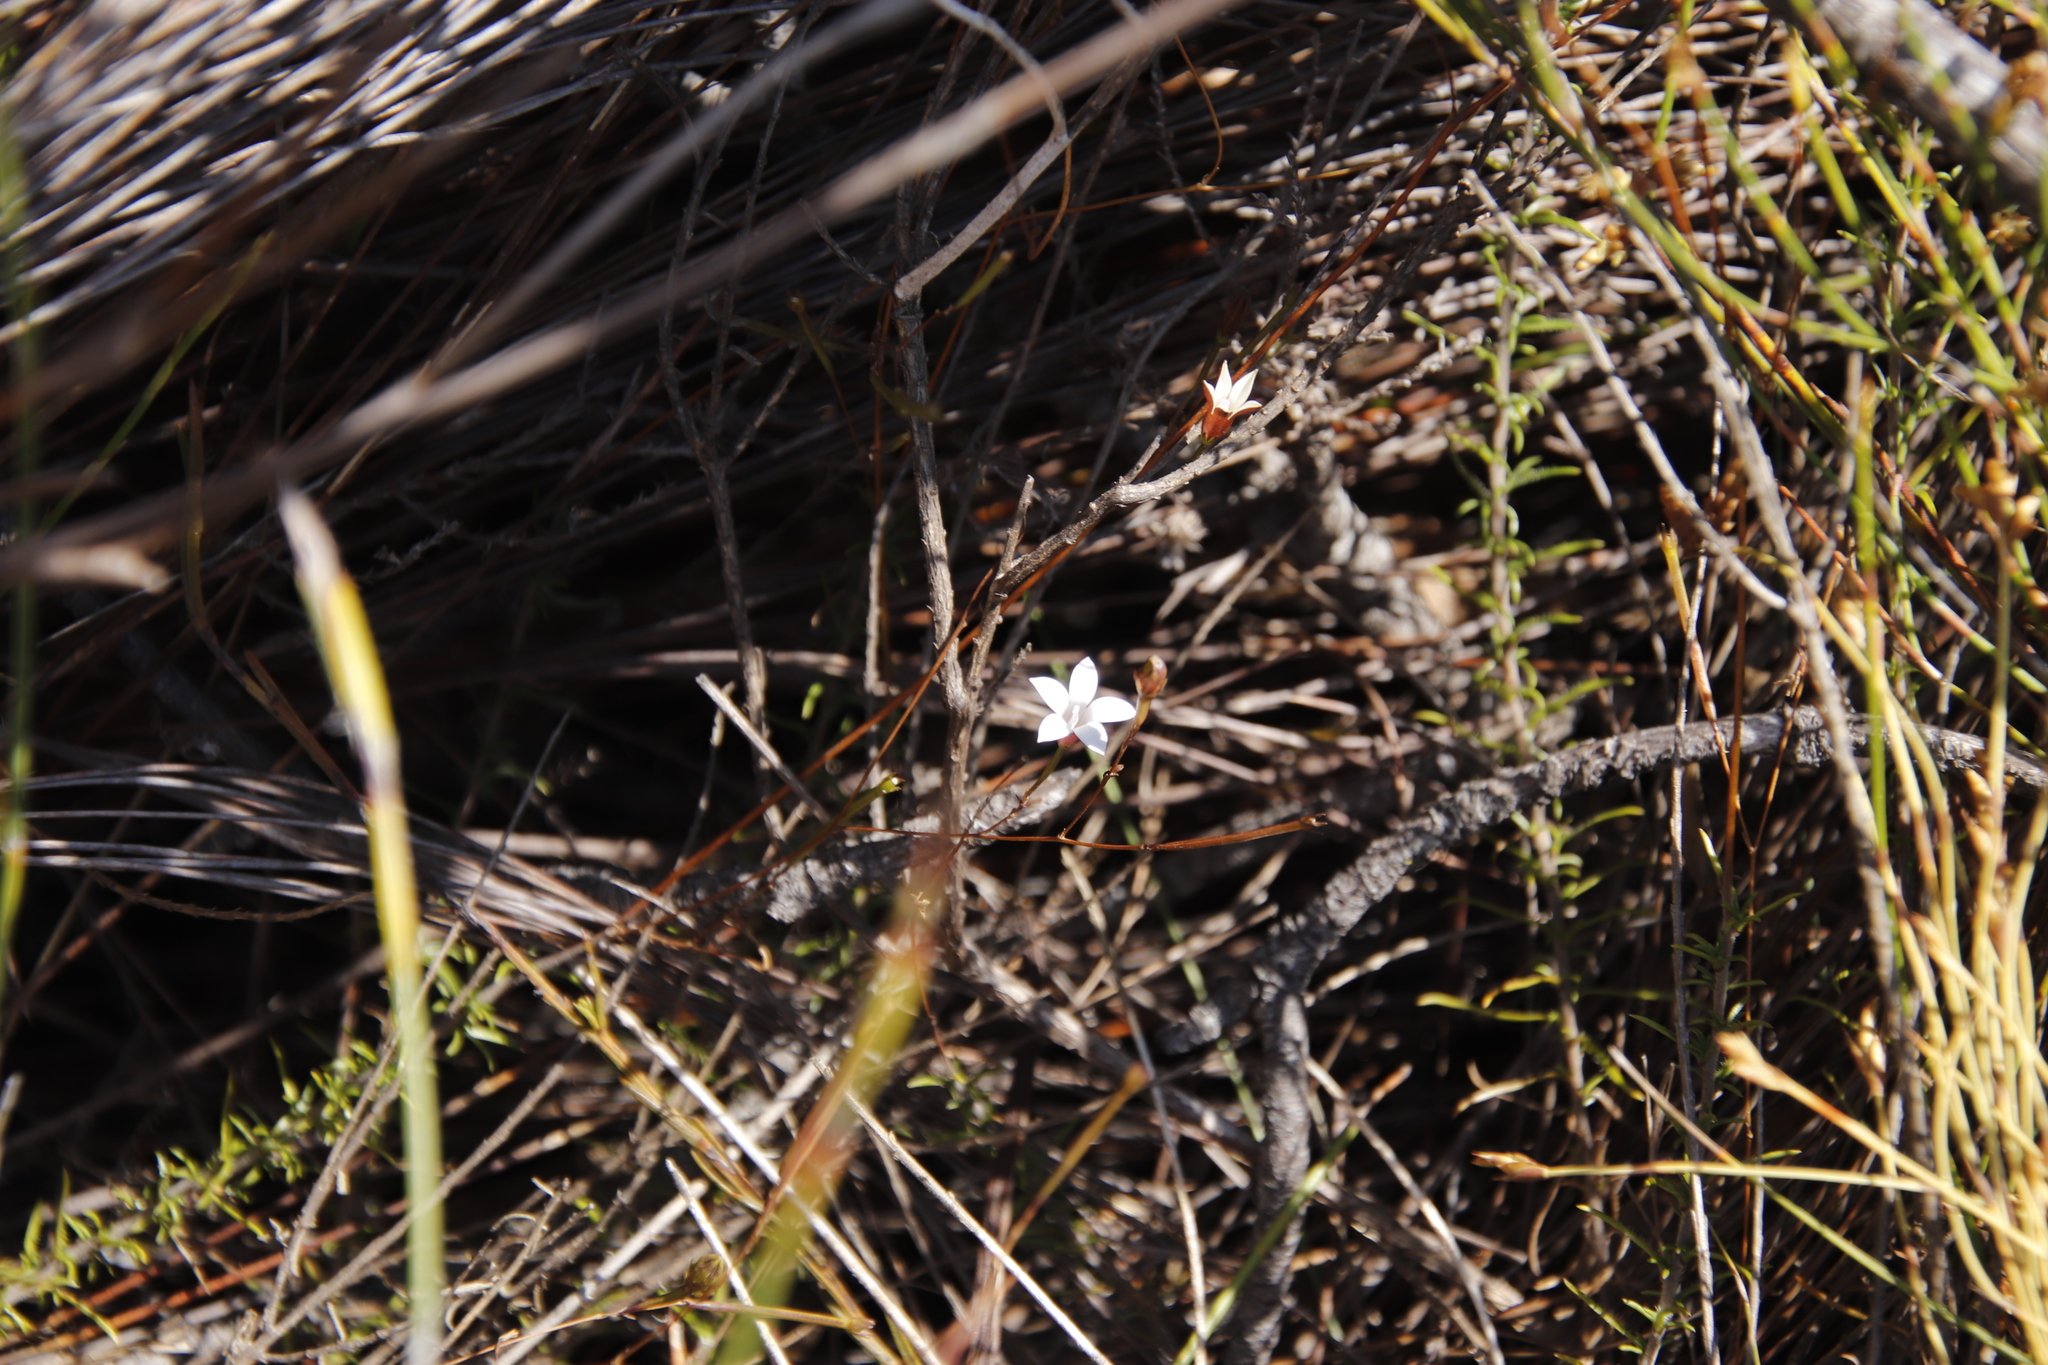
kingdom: Plantae
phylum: Tracheophyta
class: Magnoliopsida
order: Asterales
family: Campanulaceae
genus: Prismatocarpus
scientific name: Prismatocarpus fruticosus
